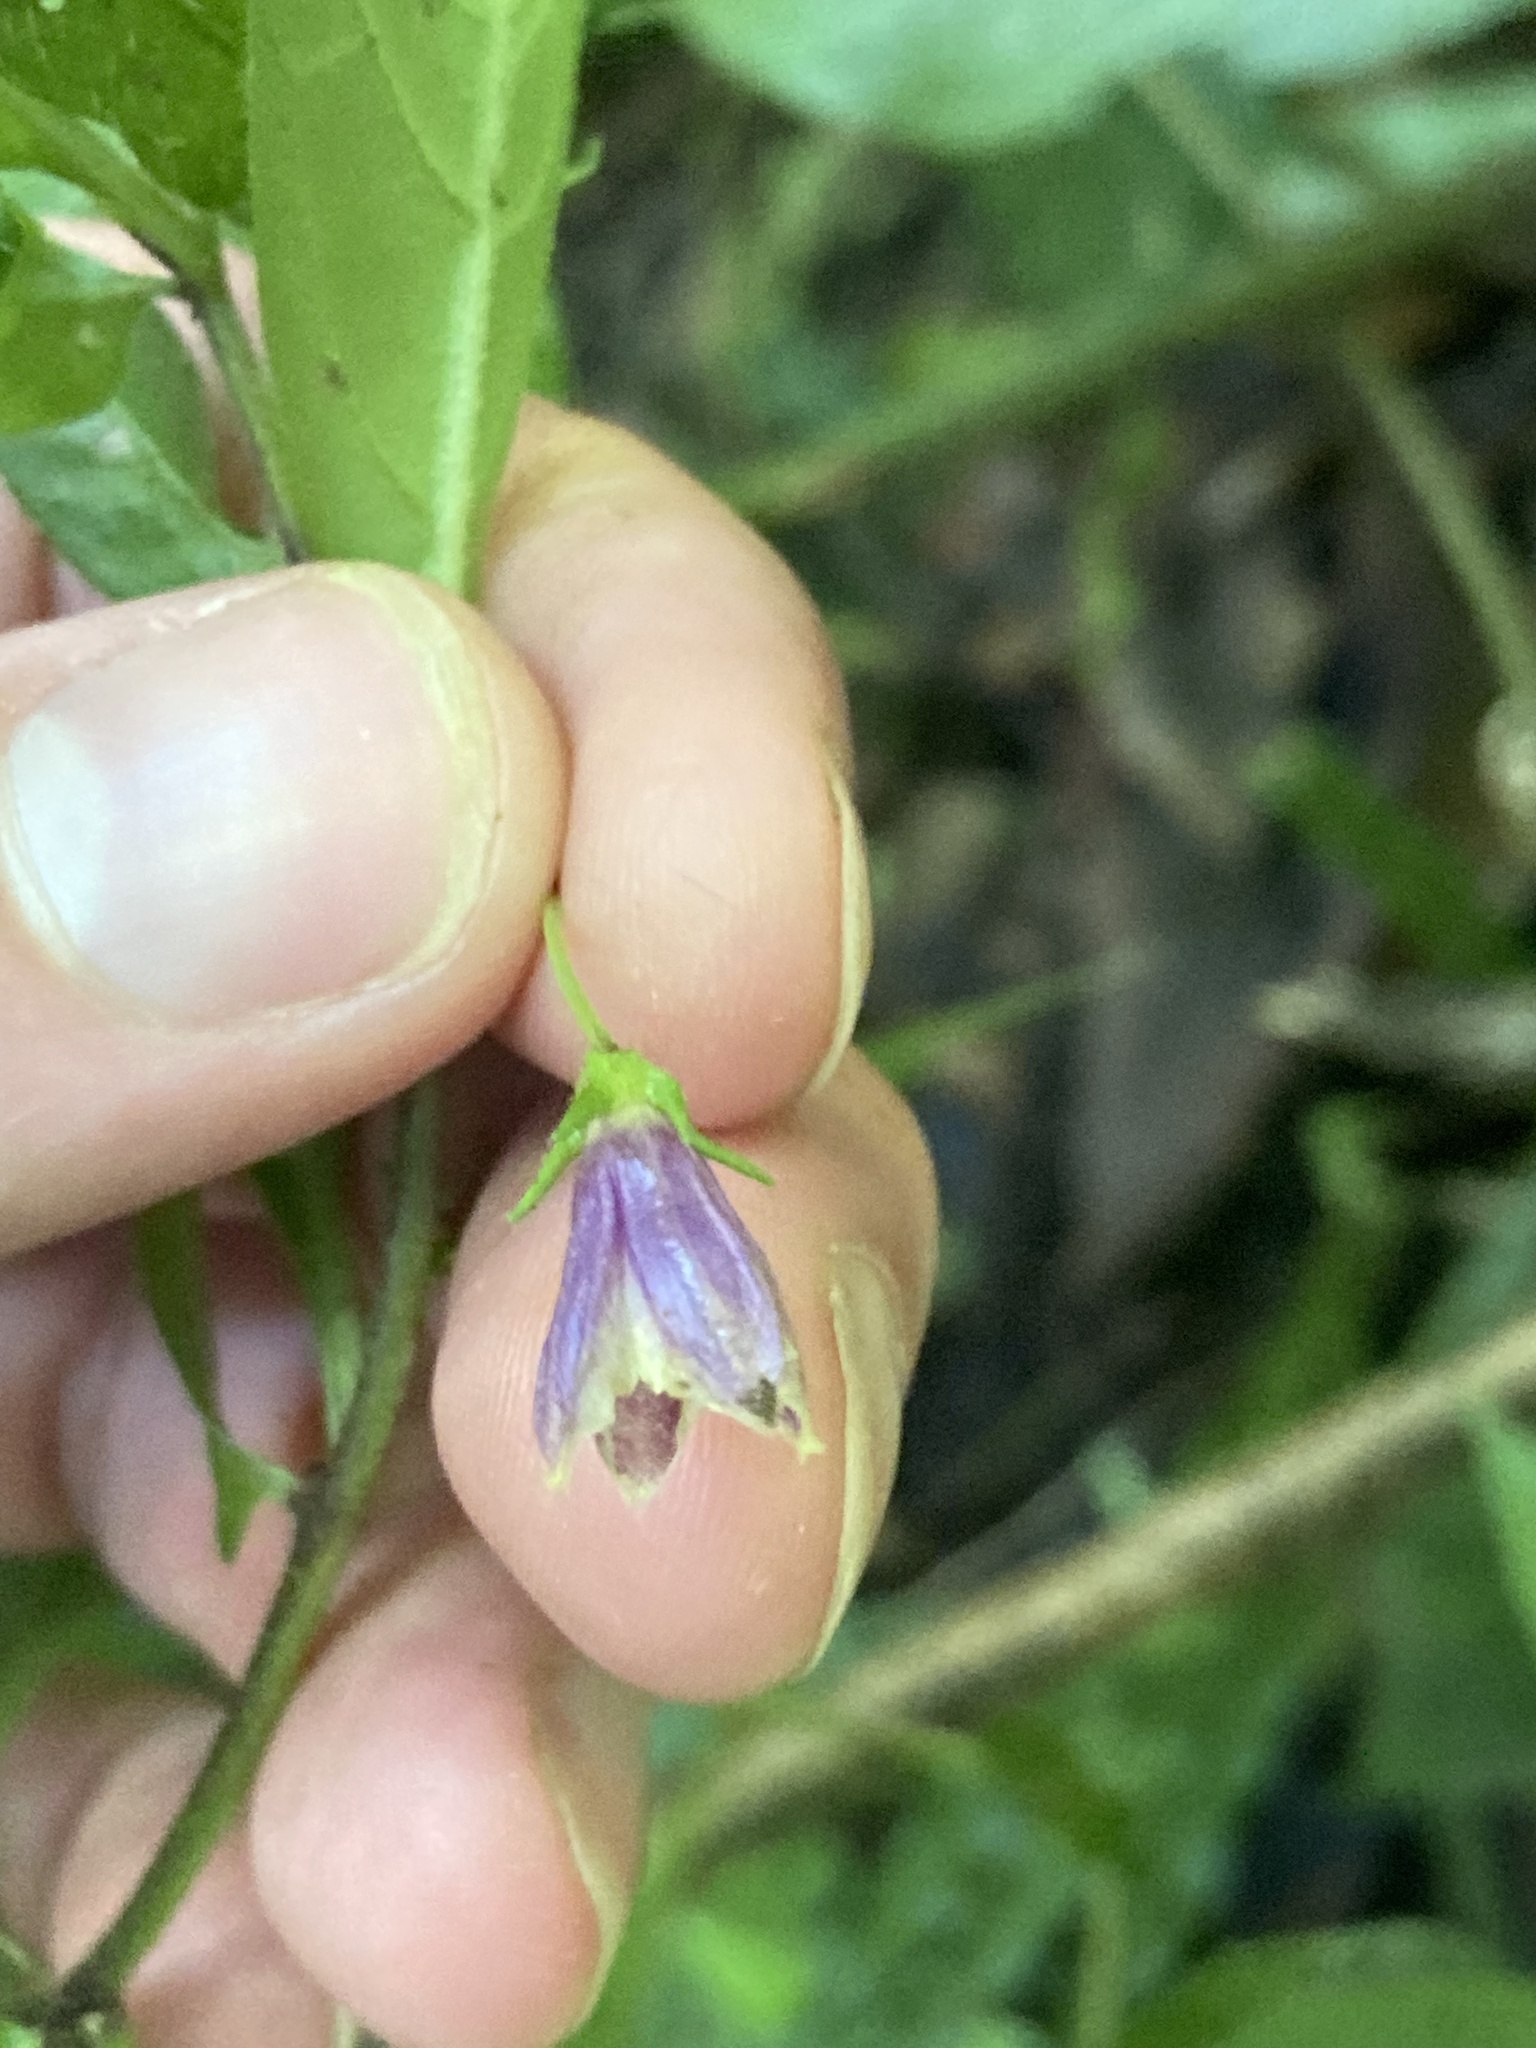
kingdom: Plantae
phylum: Tracheophyta
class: Magnoliopsida
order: Solanales
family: Solanaceae
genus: Capsicum
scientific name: Capsicum lanceolatum
